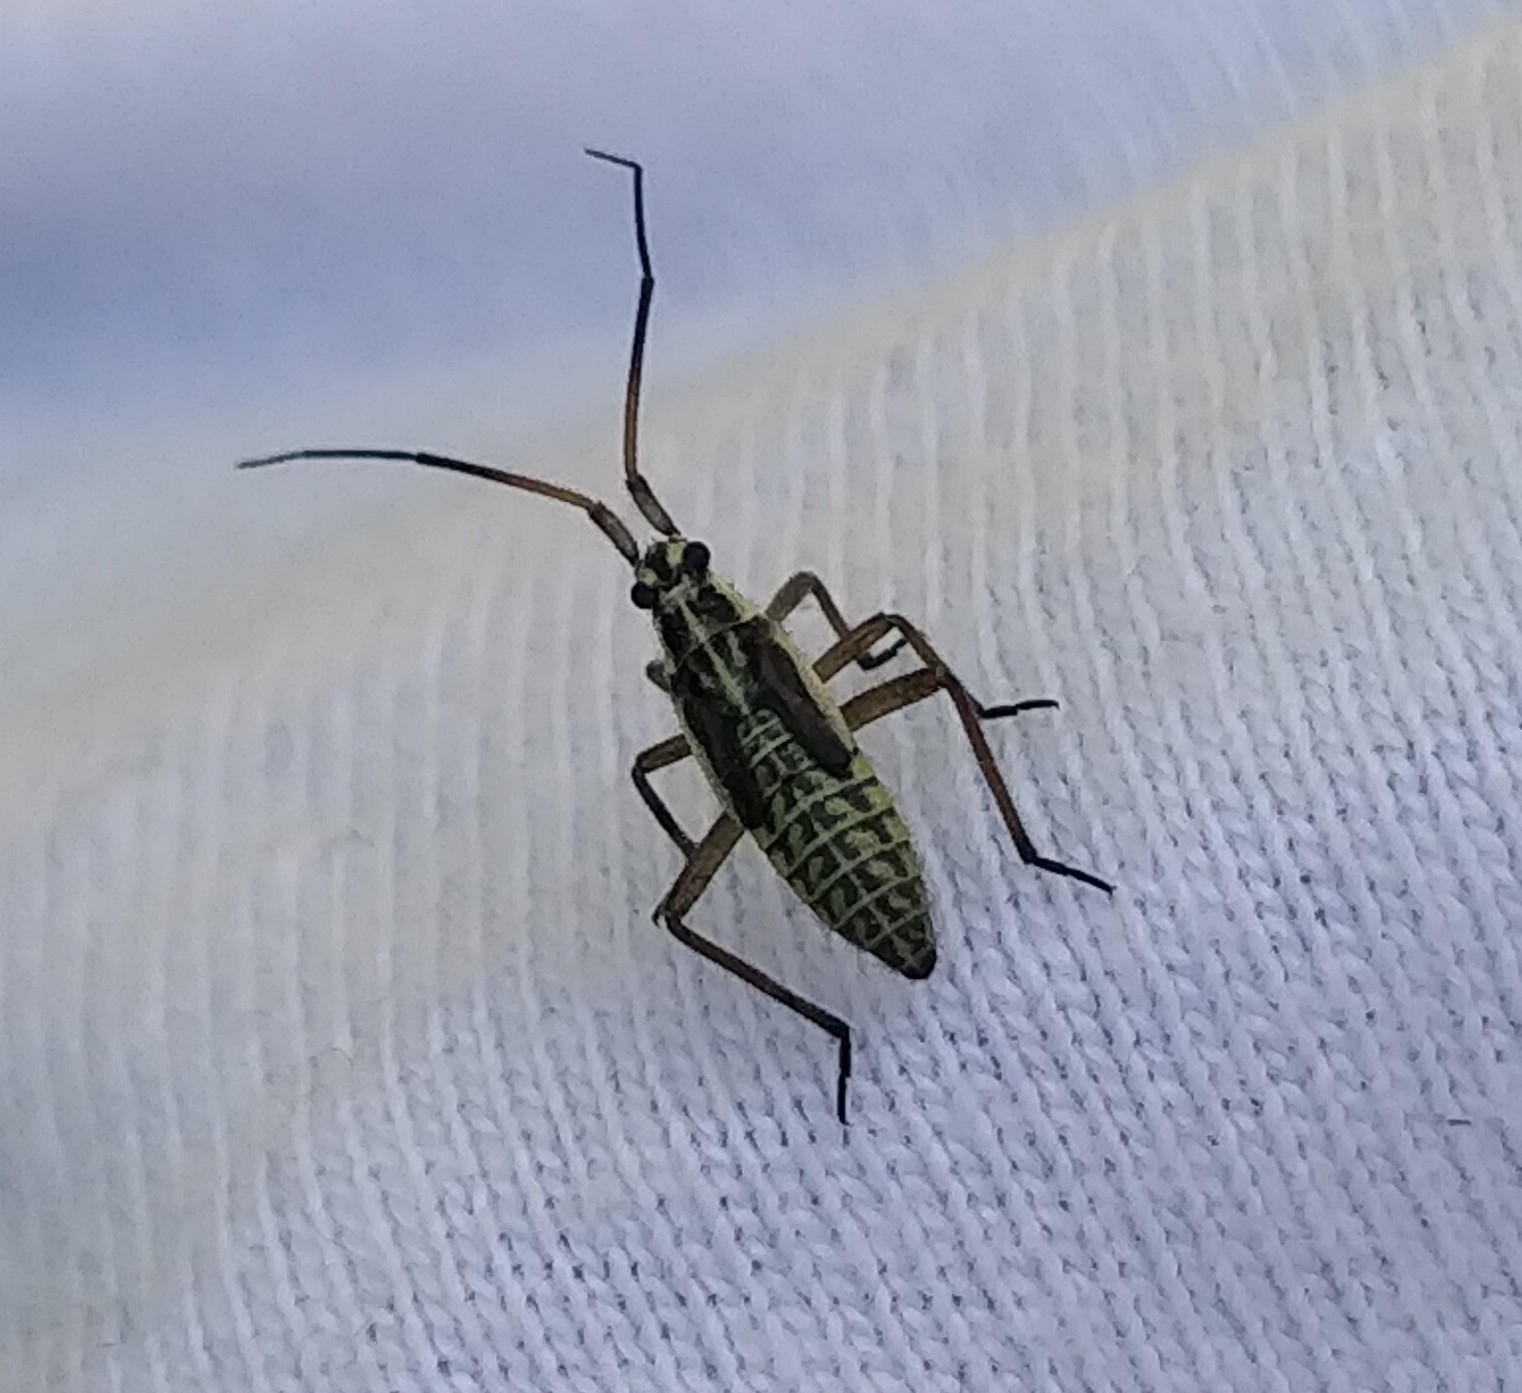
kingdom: Animalia
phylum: Arthropoda
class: Insecta
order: Hemiptera
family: Miridae
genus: Leptopterna
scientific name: Leptopterna dolabrata
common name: Meadow plant bug
